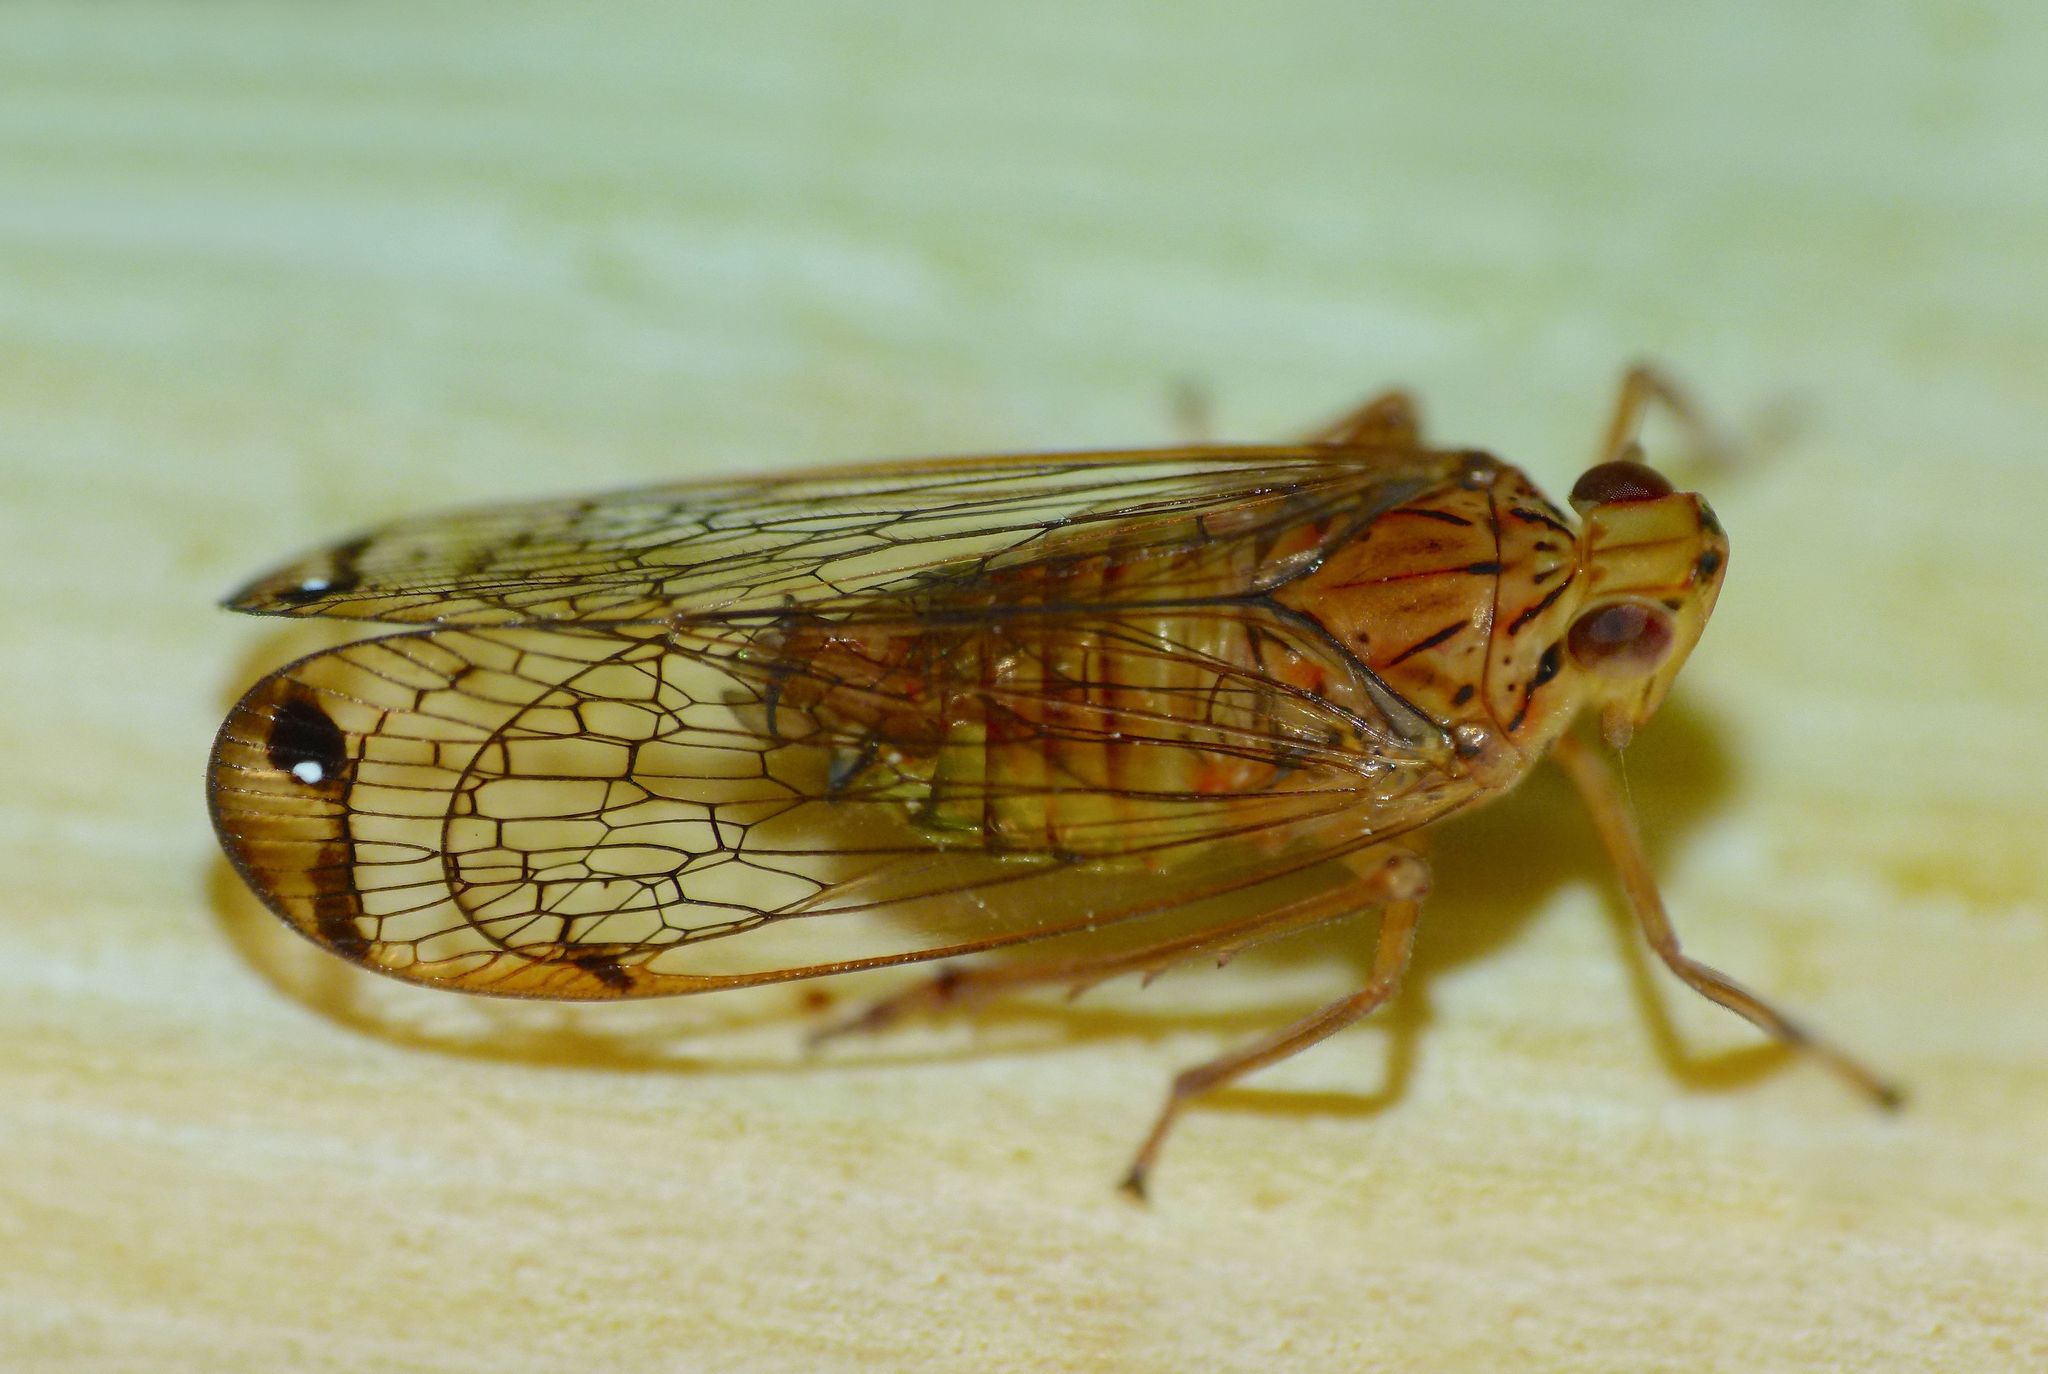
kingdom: Animalia
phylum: Arthropoda
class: Insecta
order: Hemiptera
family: Lophopidae
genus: Magia
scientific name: Magia subocellata
